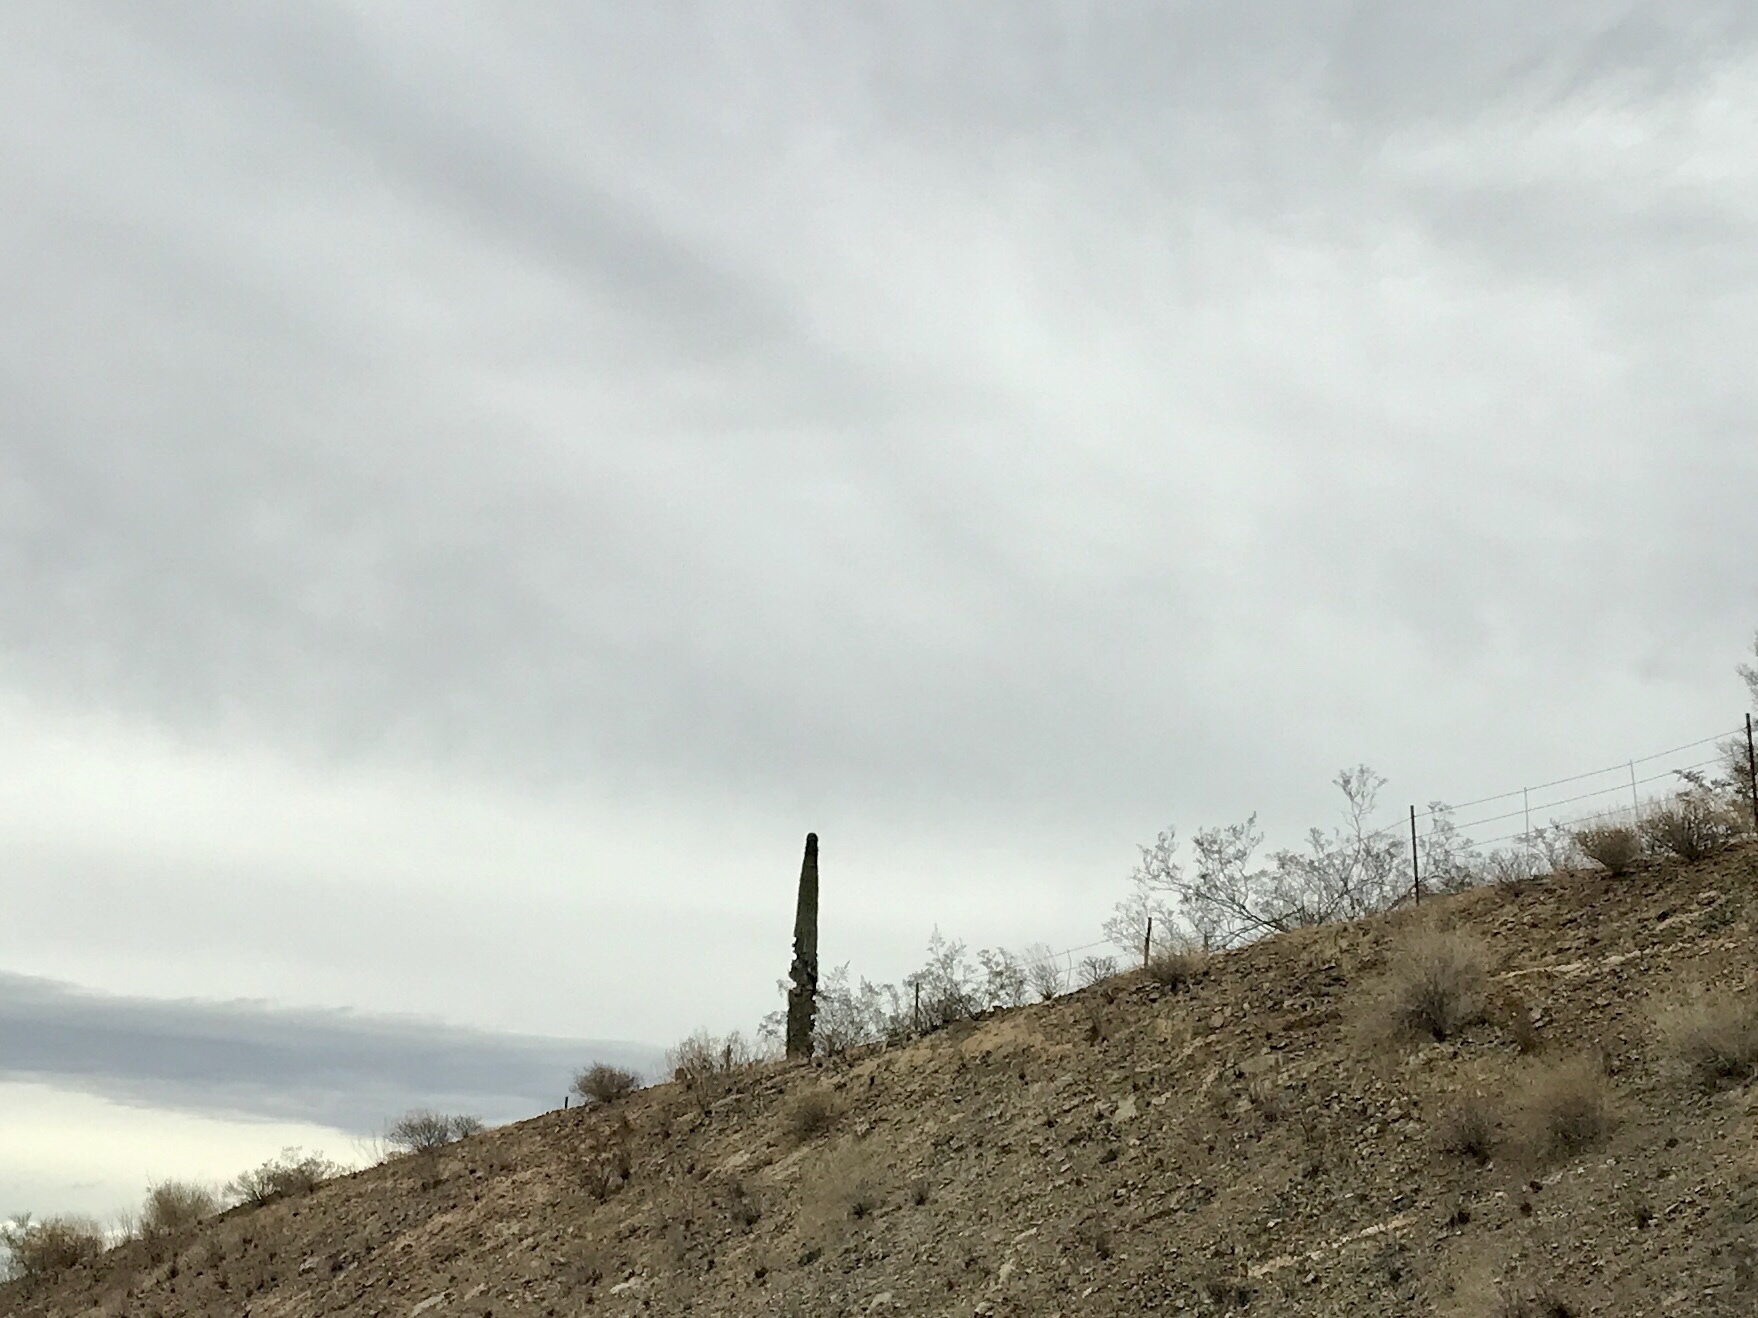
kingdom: Plantae
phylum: Tracheophyta
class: Magnoliopsida
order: Caryophyllales
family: Cactaceae
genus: Carnegiea
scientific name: Carnegiea gigantea
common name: Saguaro
